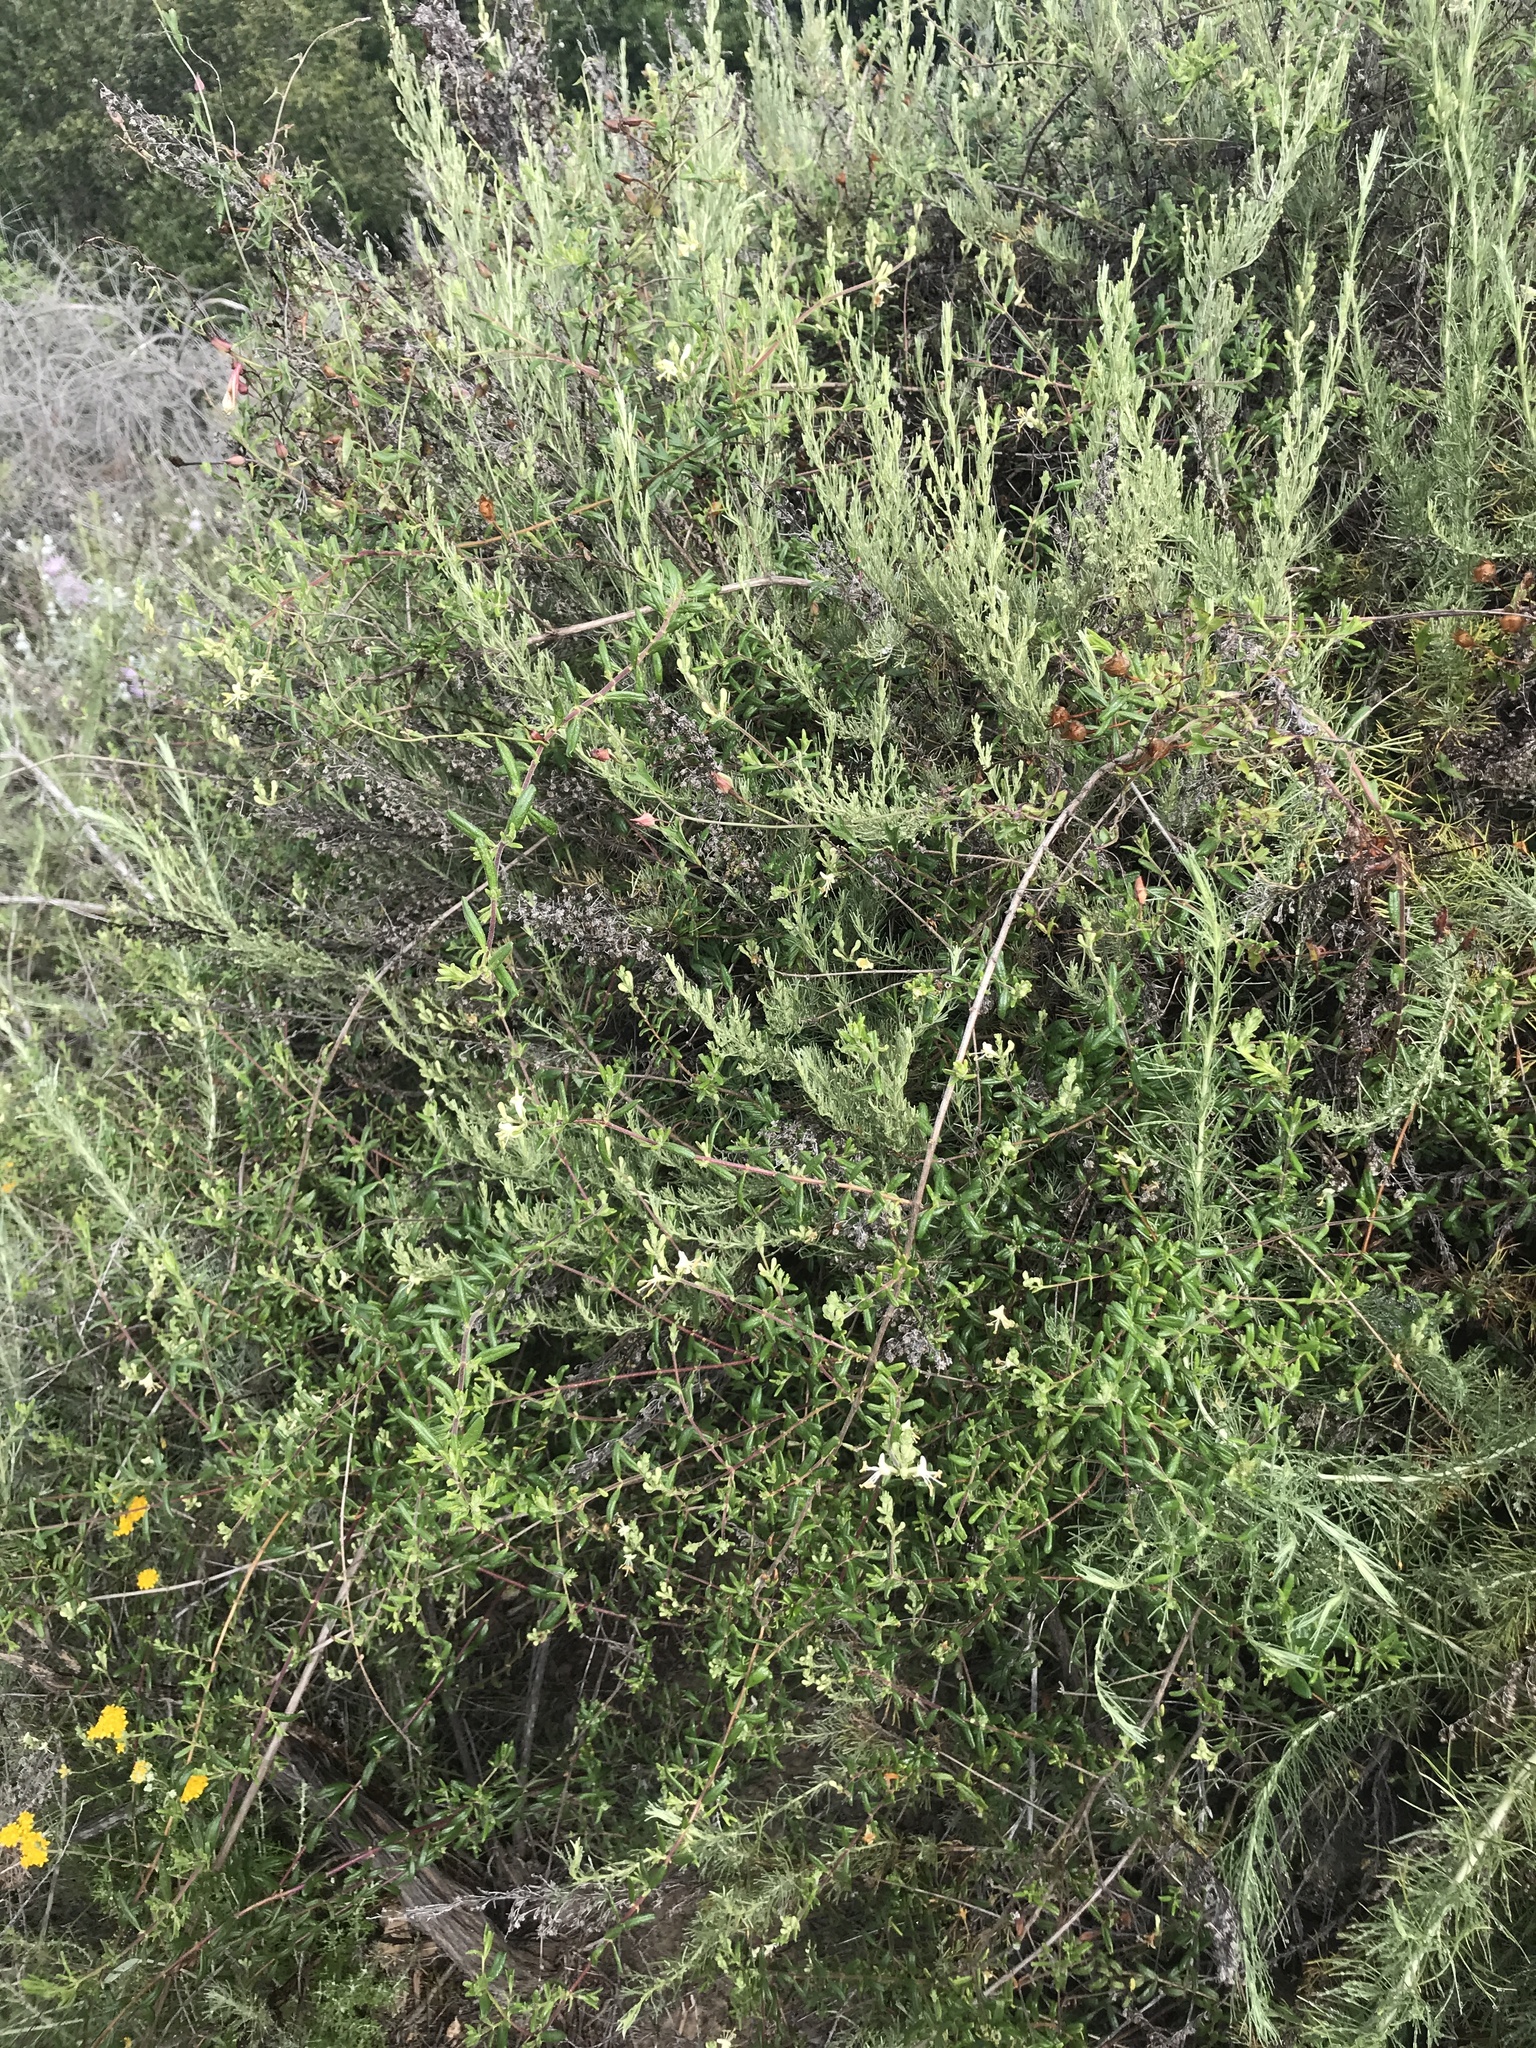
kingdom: Plantae
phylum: Tracheophyta
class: Magnoliopsida
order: Dipsacales
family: Caprifoliaceae
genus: Lonicera
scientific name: Lonicera subspicata
